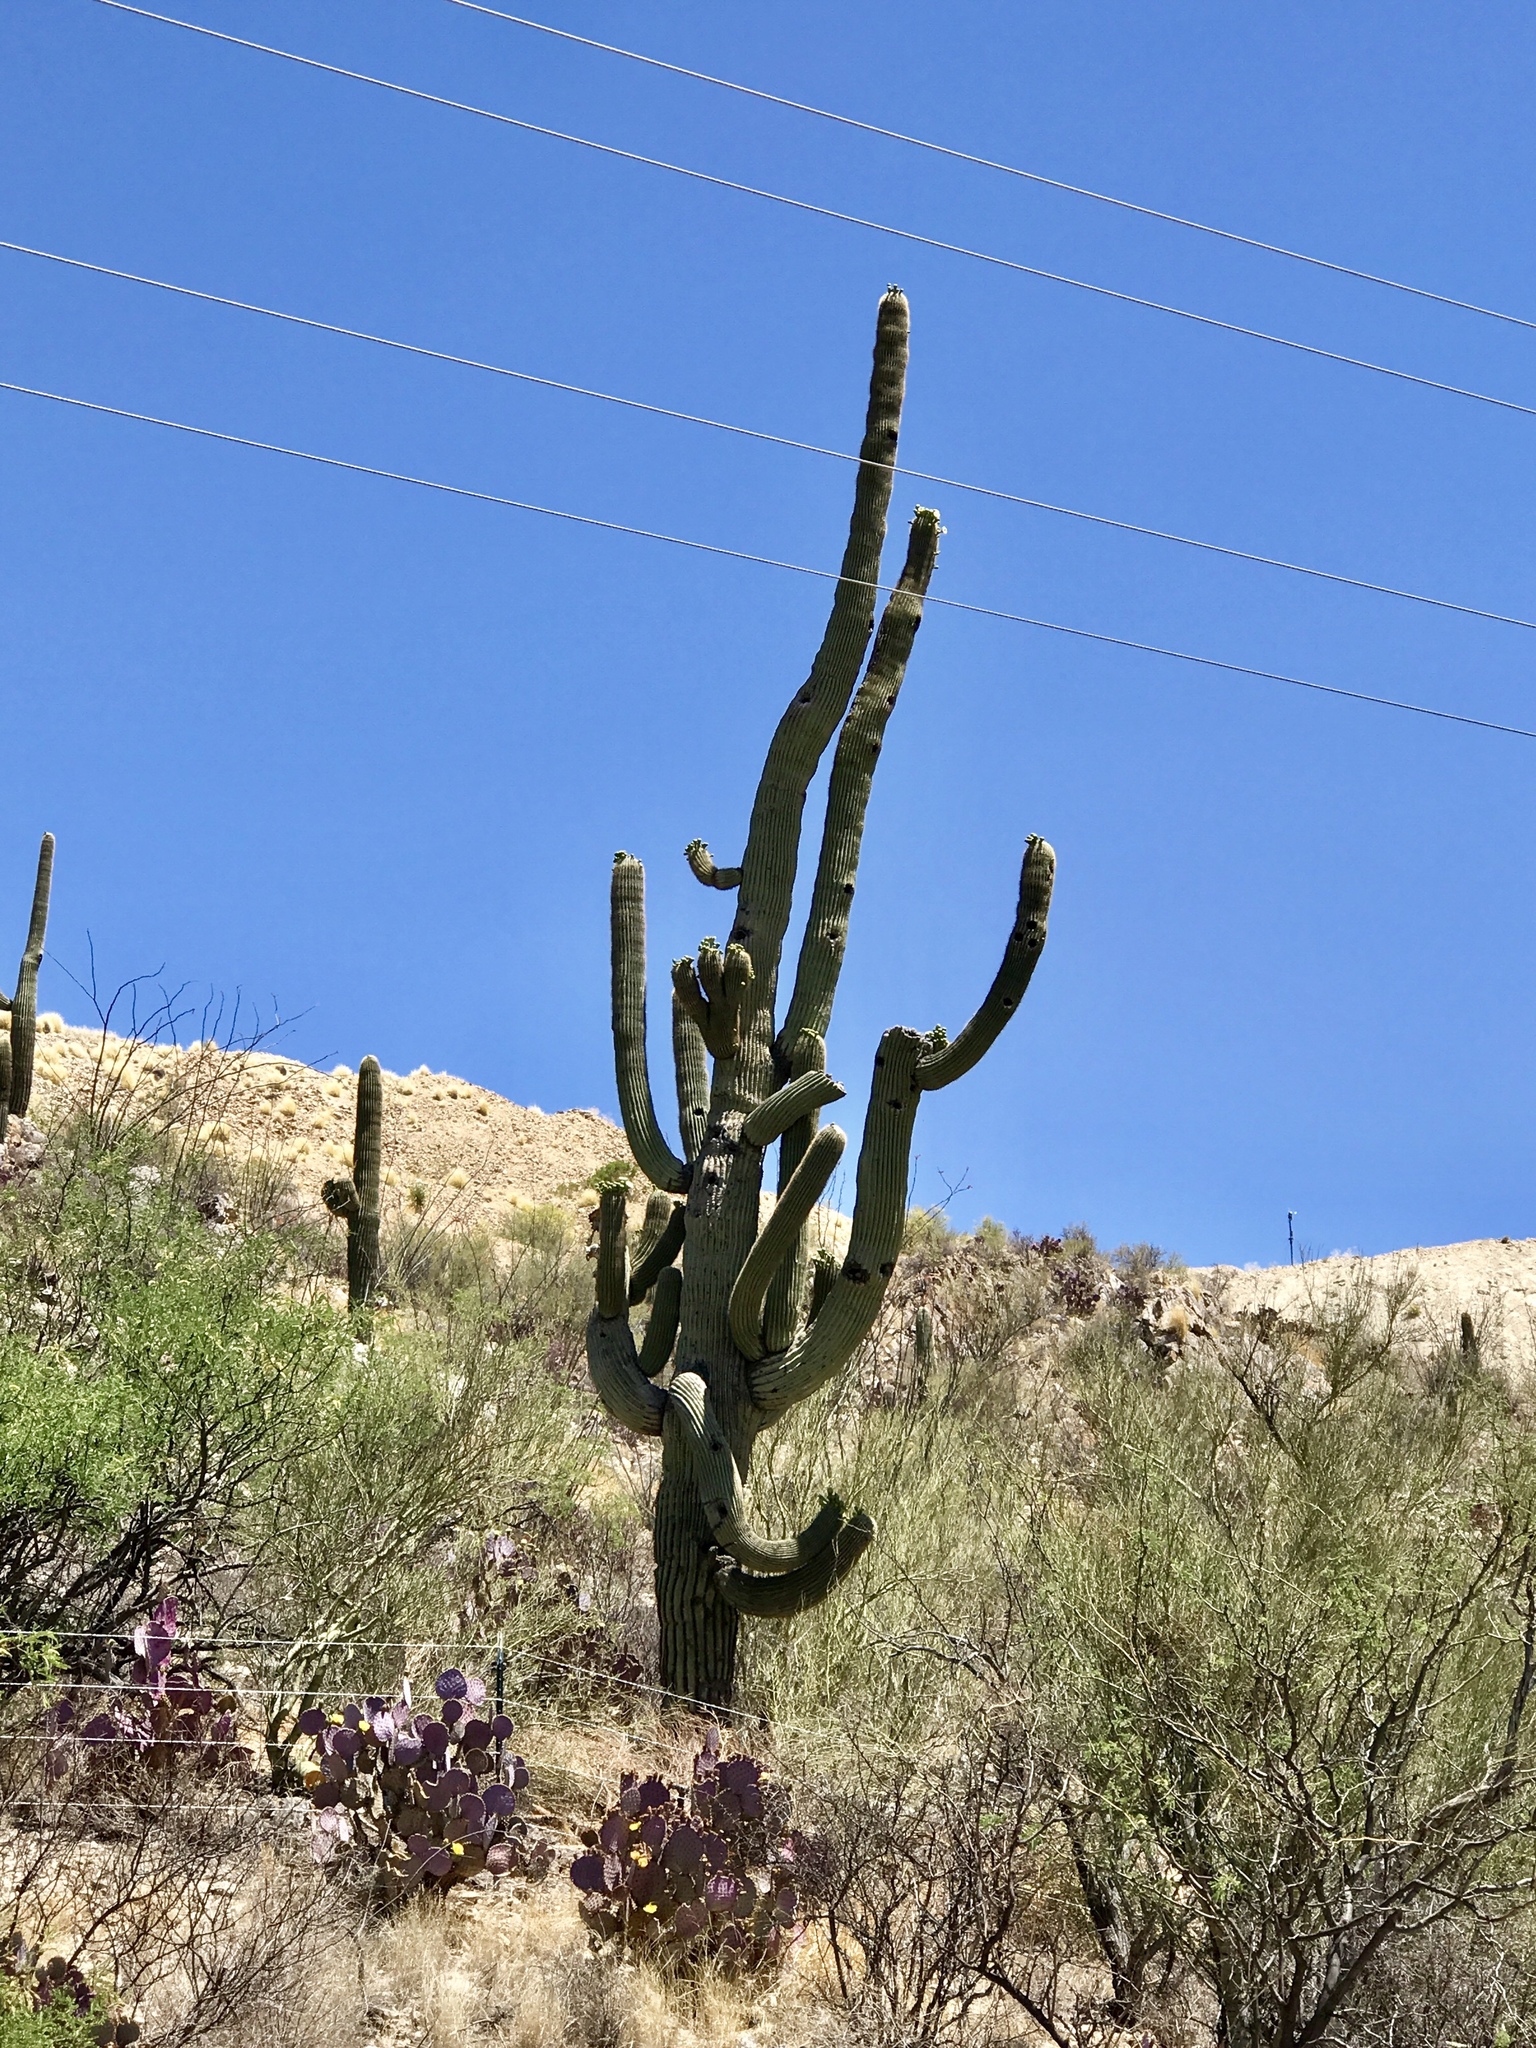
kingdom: Plantae
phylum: Tracheophyta
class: Magnoliopsida
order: Caryophyllales
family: Cactaceae
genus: Carnegiea
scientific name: Carnegiea gigantea
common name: Saguaro
